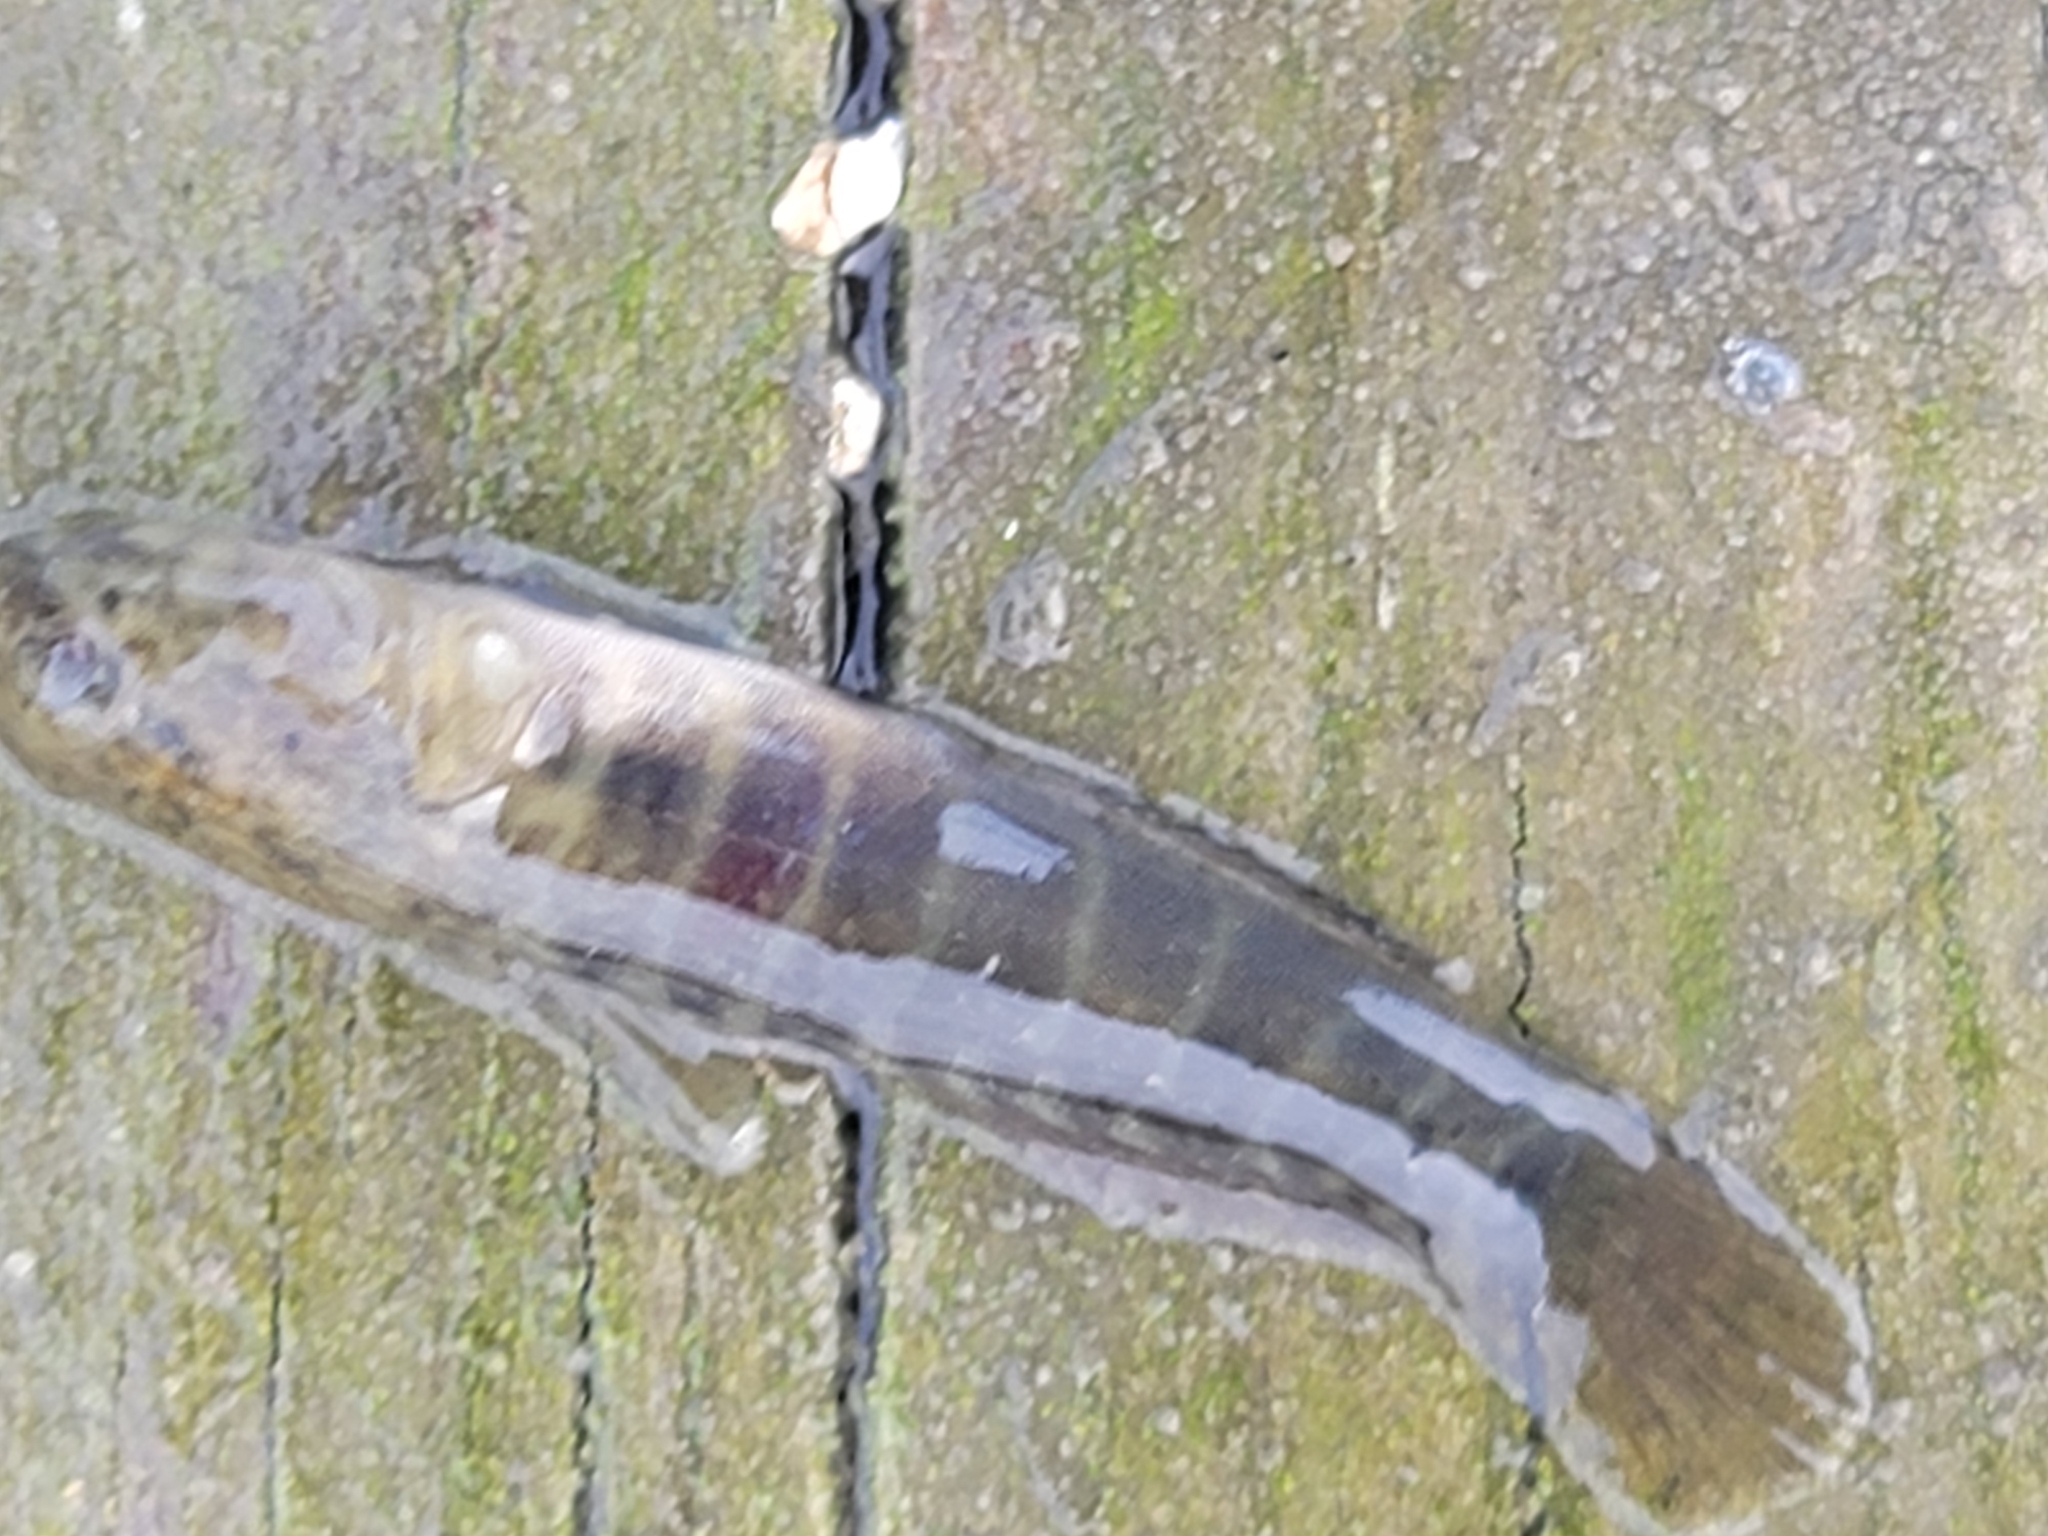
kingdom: Animalia
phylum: Chordata
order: Perciformes
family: Gobiidae
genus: Gobiosoma
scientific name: Gobiosoma bosc
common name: Naked goby
